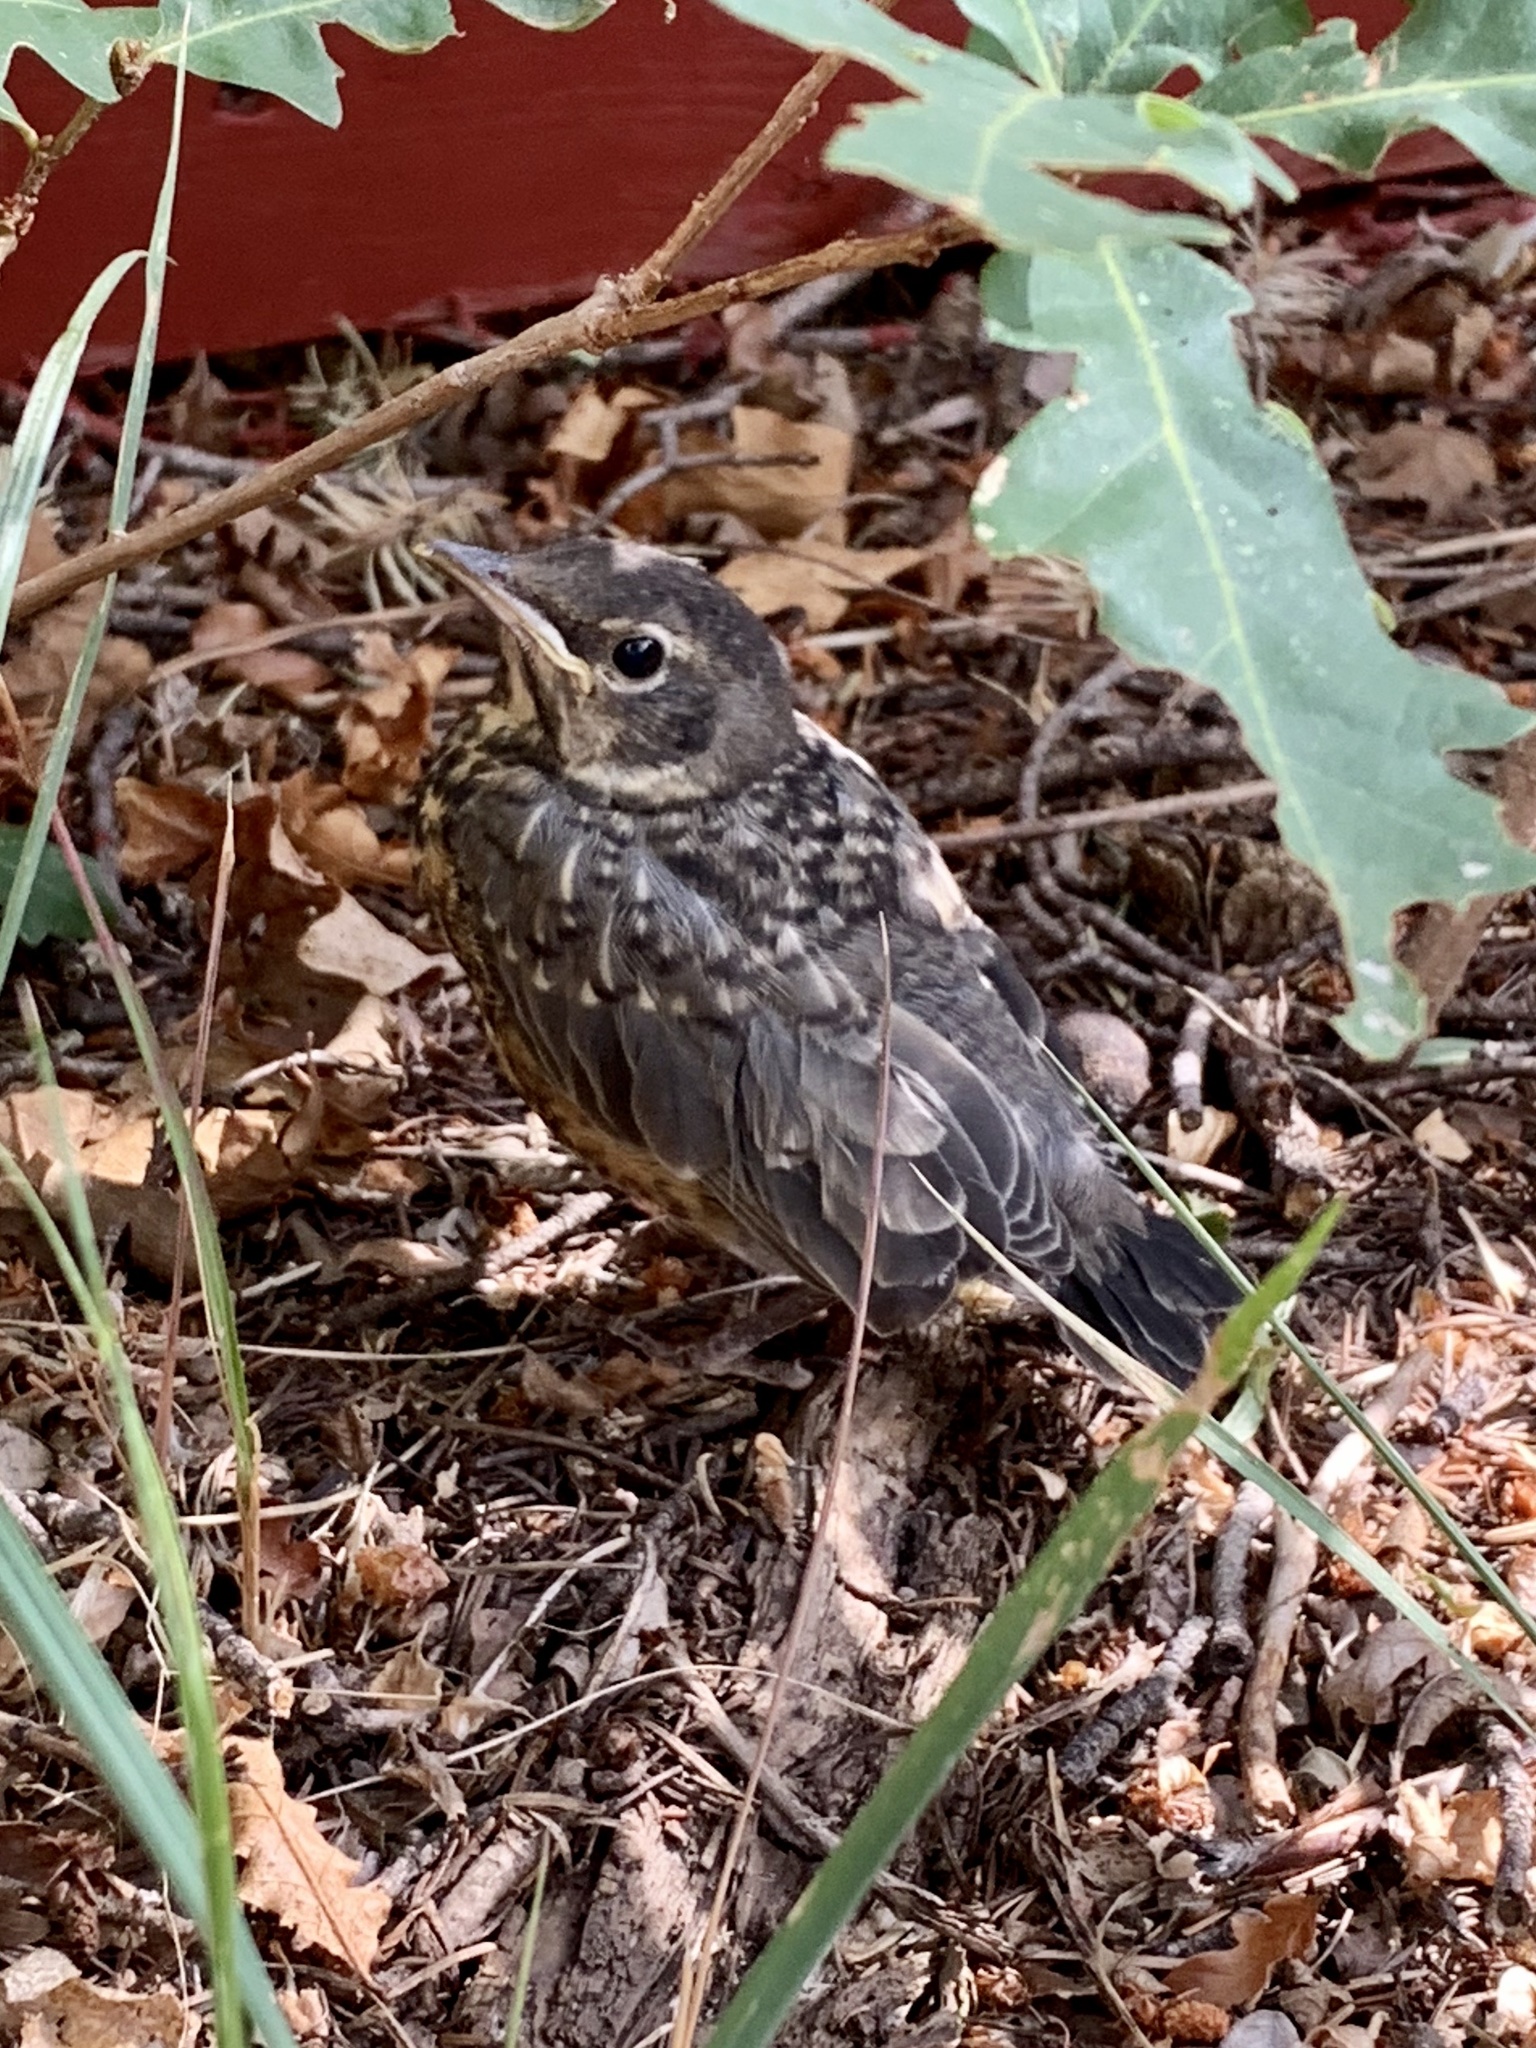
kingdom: Animalia
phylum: Chordata
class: Aves
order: Passeriformes
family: Turdidae
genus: Turdus
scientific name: Turdus migratorius
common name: American robin
